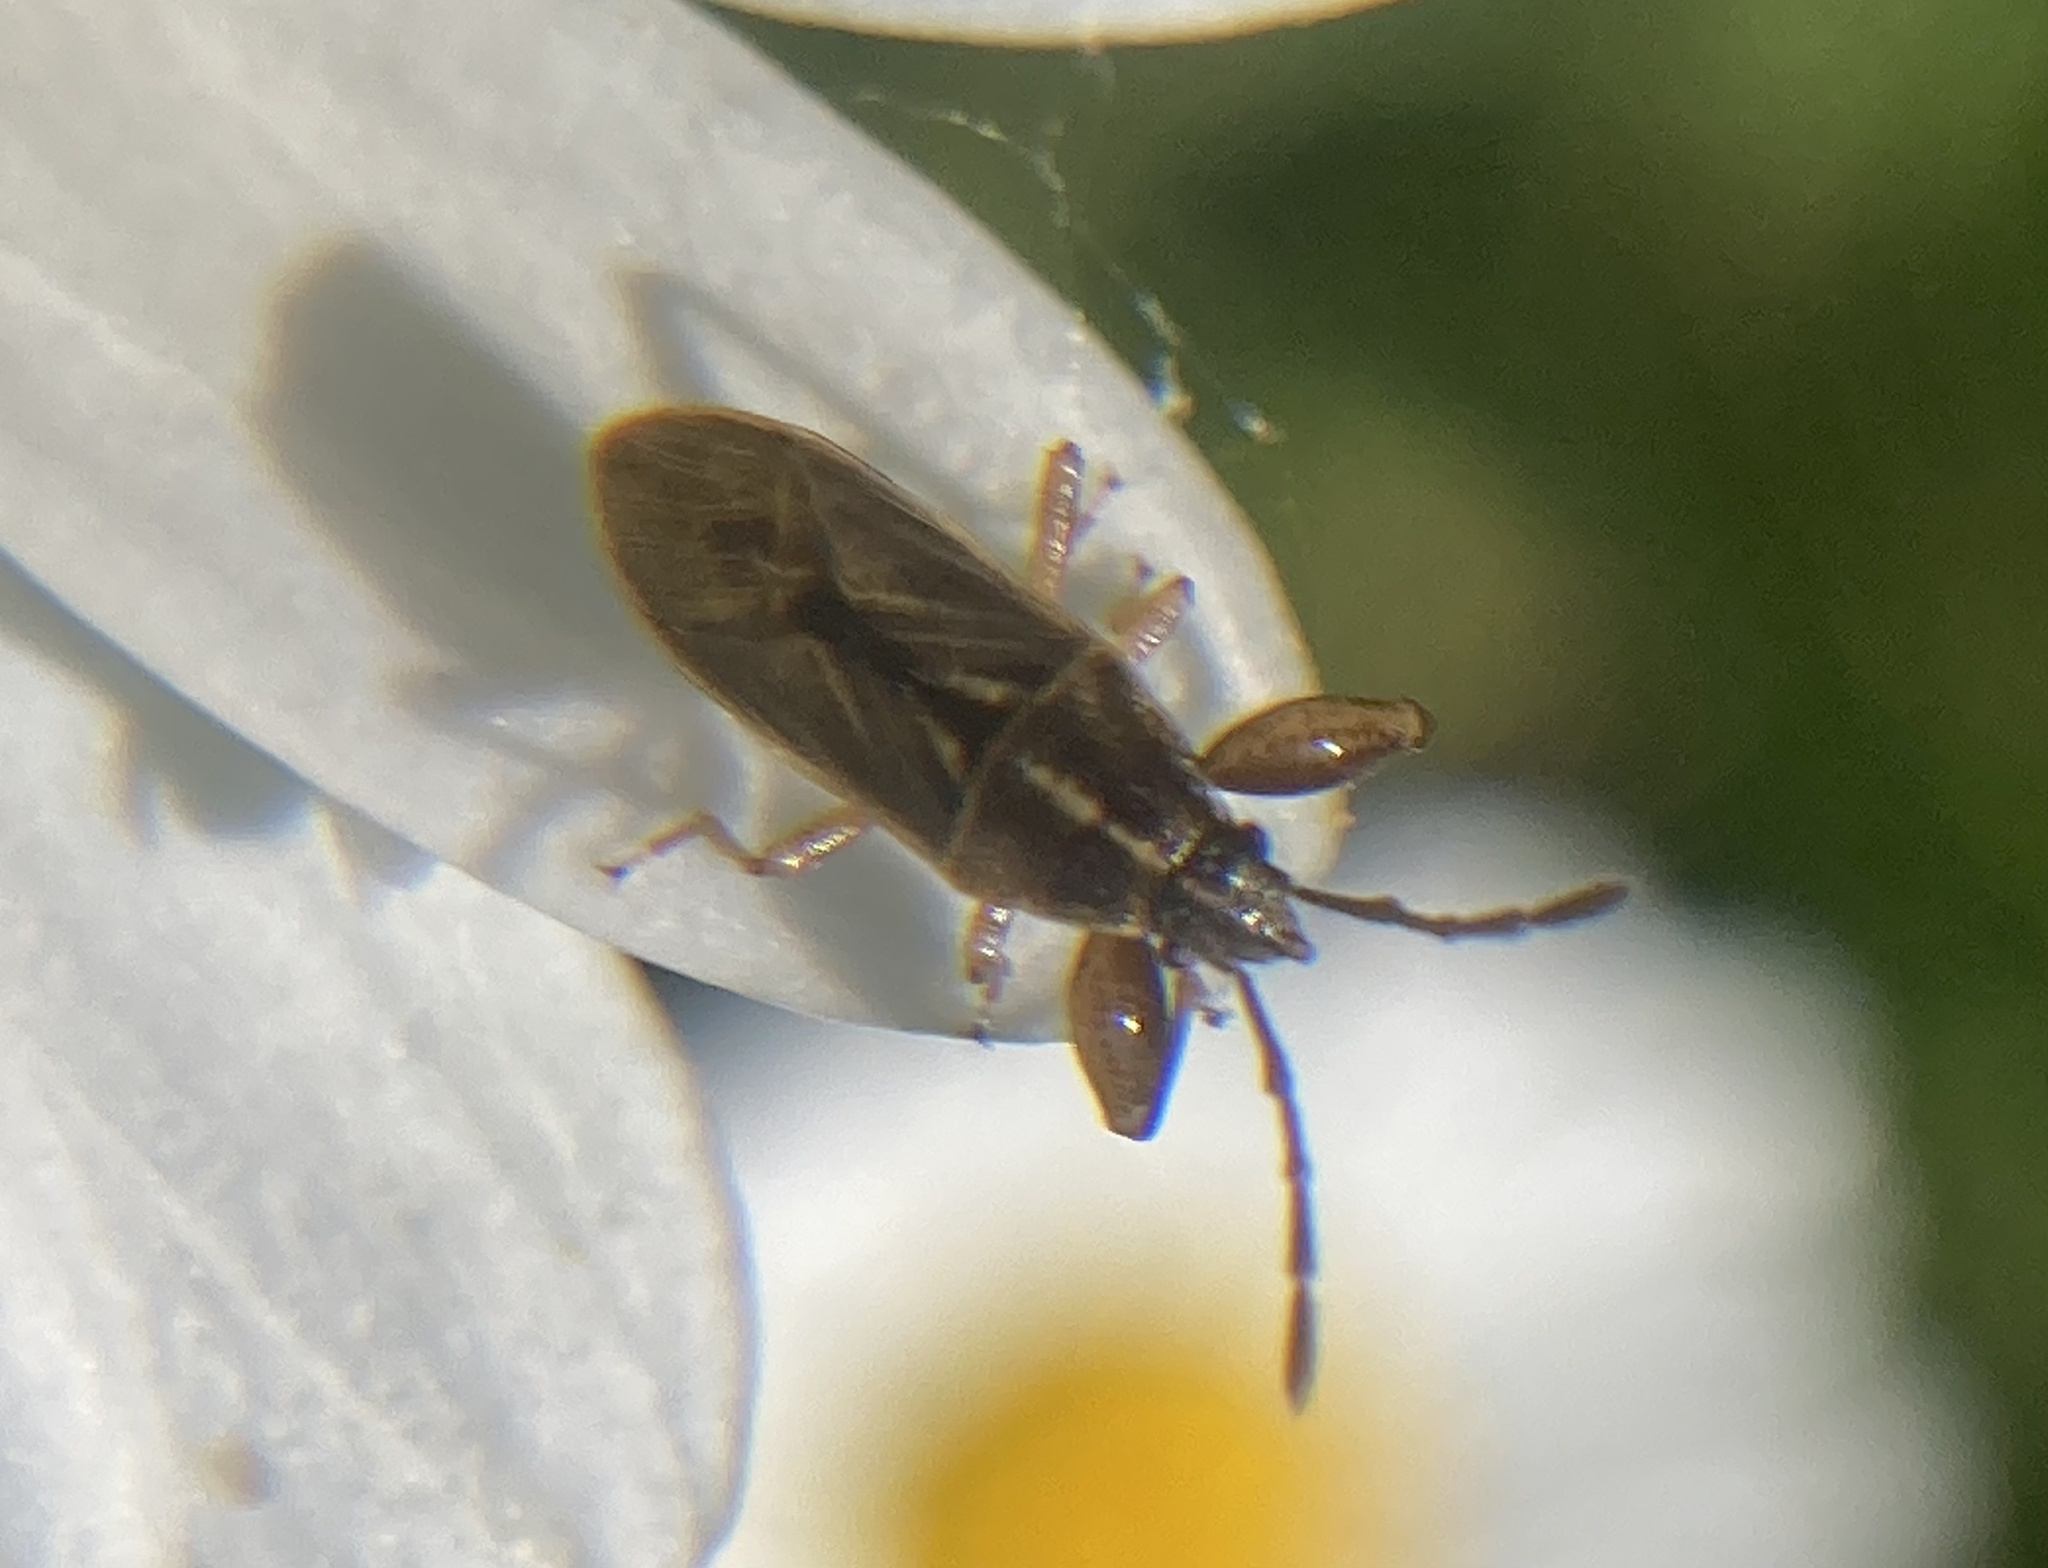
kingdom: Animalia
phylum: Arthropoda
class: Insecta
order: Hemiptera
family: Pachygronthidae
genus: Oedancala
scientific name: Oedancala dorsalis
